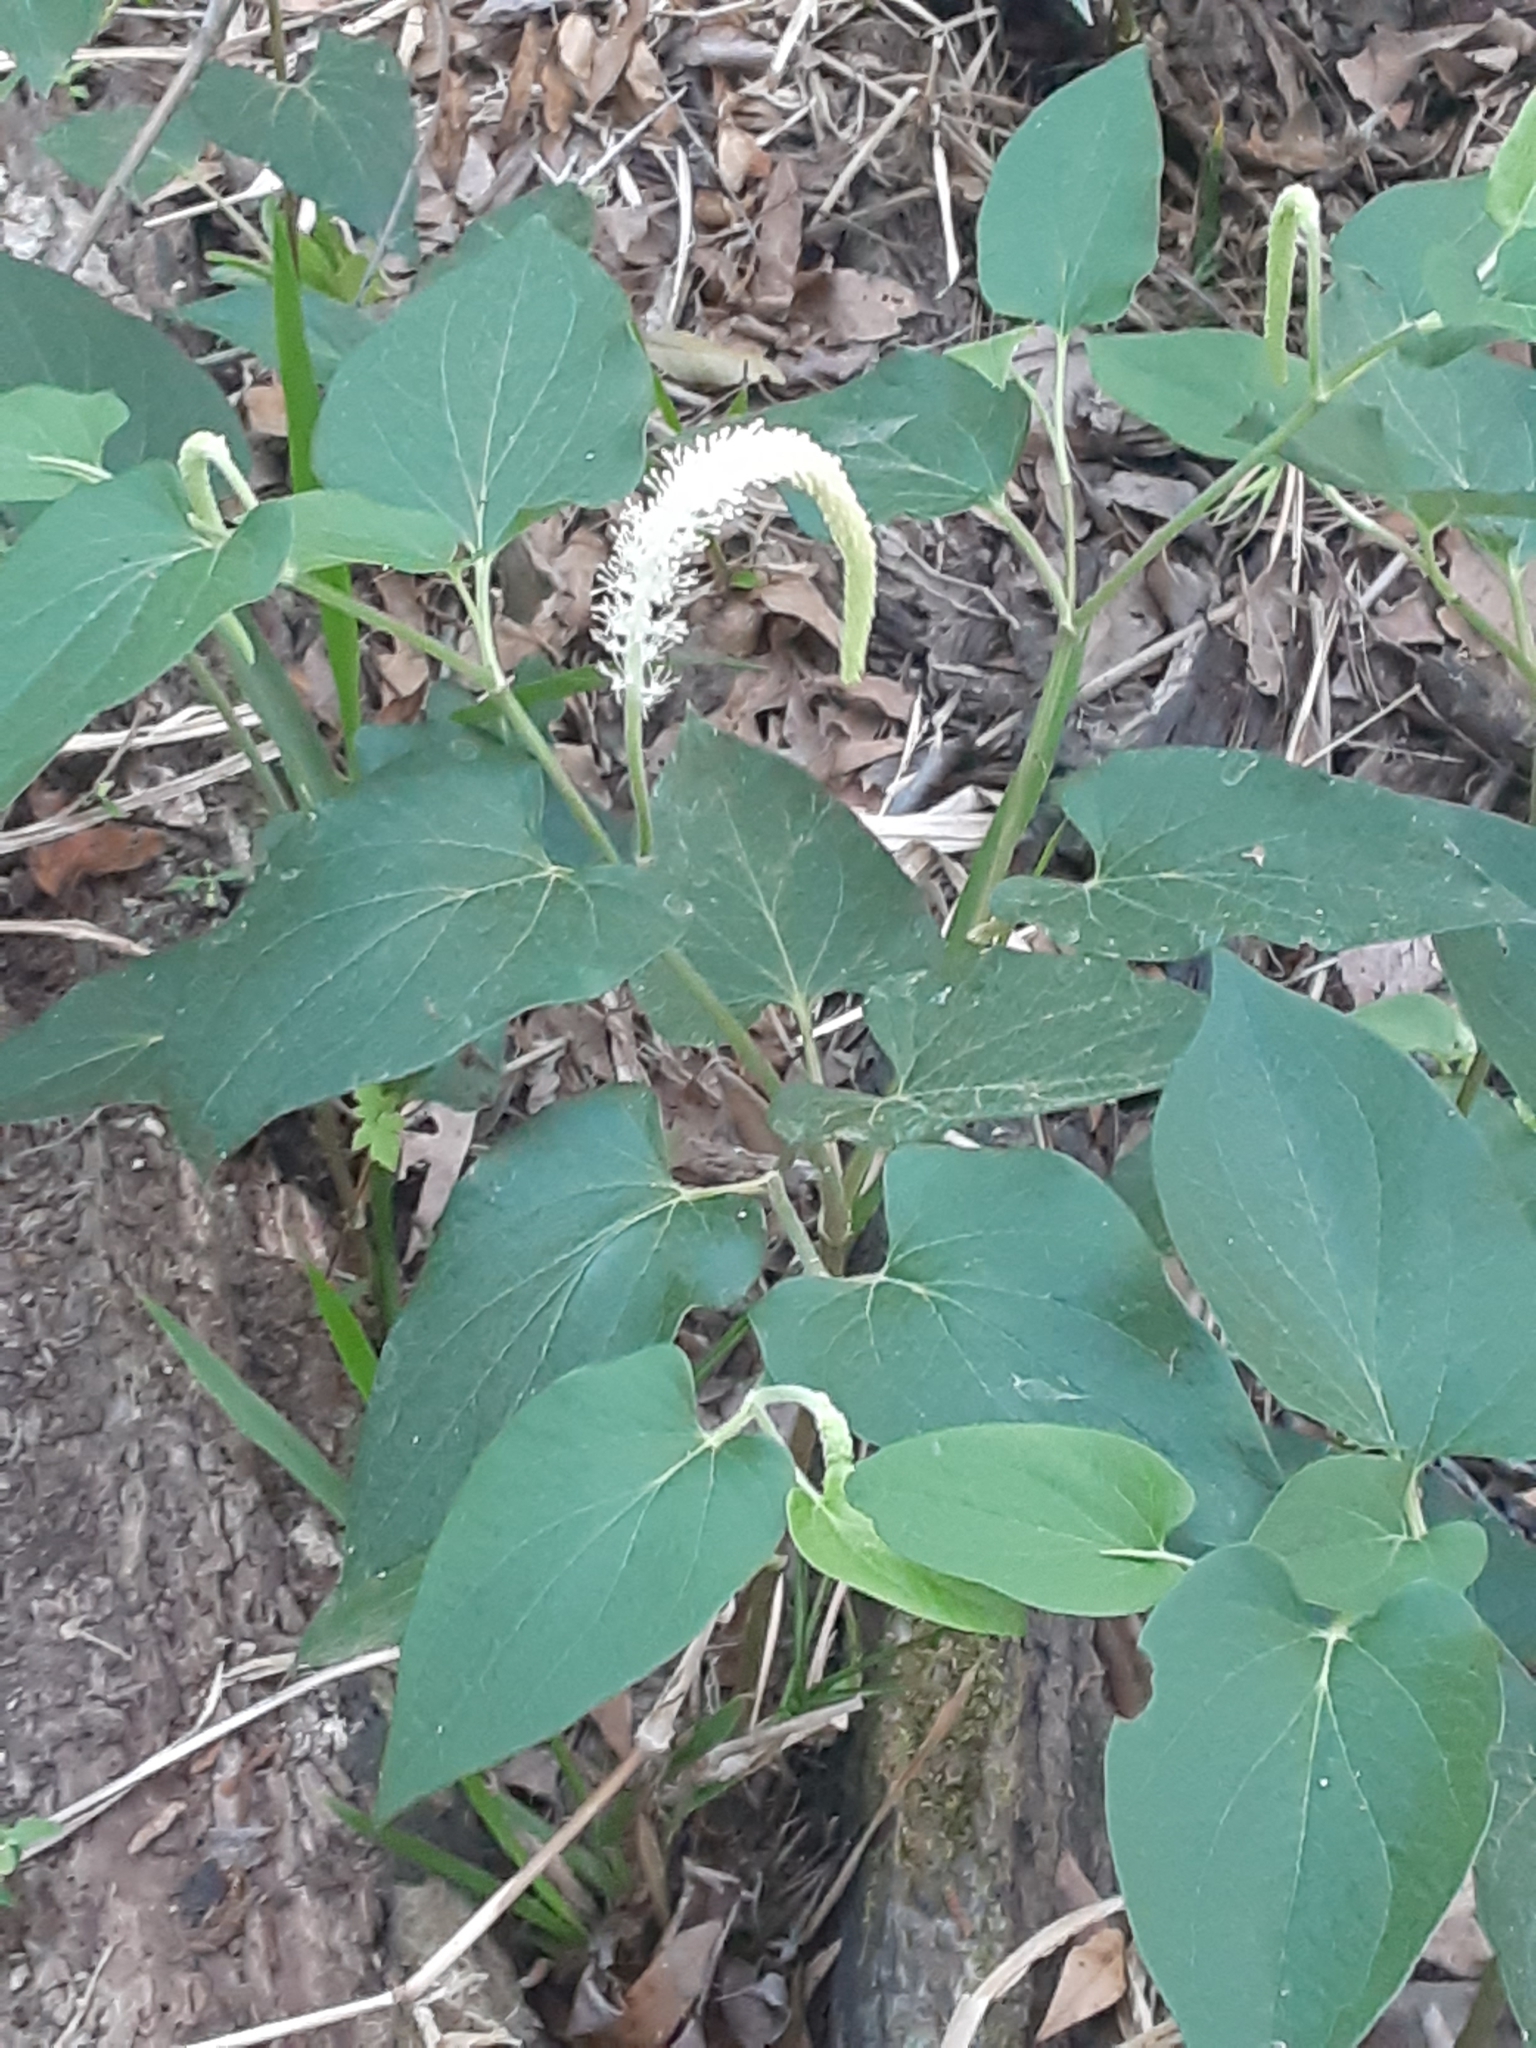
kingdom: Plantae
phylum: Tracheophyta
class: Magnoliopsida
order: Piperales
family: Saururaceae
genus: Saururus
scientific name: Saururus cernuus
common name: Lizard's-tail
